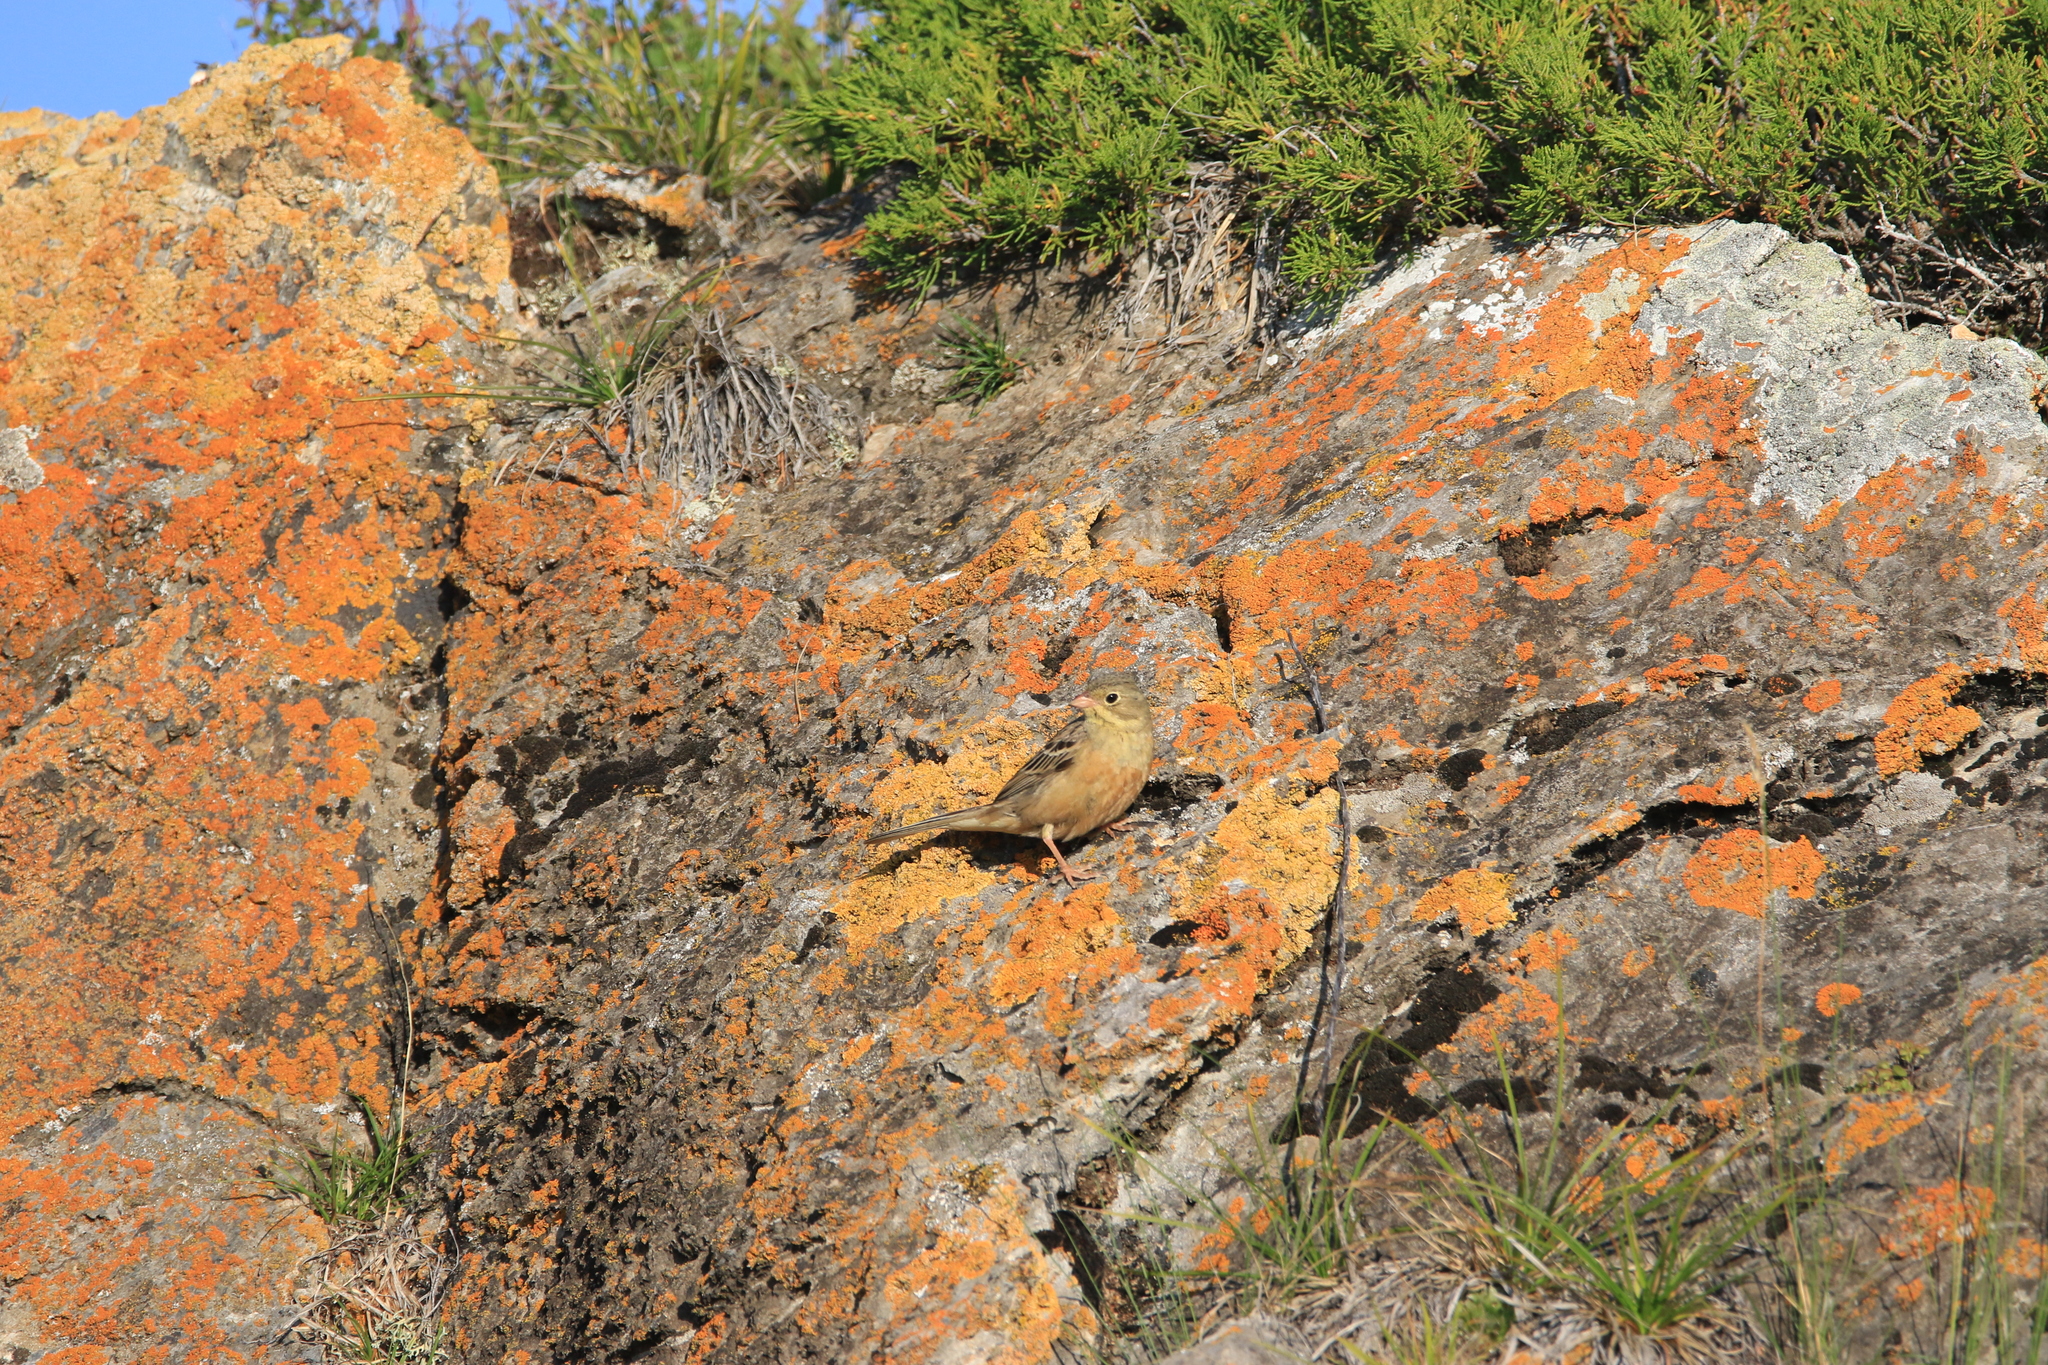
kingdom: Animalia
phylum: Chordata
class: Aves
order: Passeriformes
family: Emberizidae
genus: Emberiza
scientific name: Emberiza hortulana
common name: Ortolan bunting
